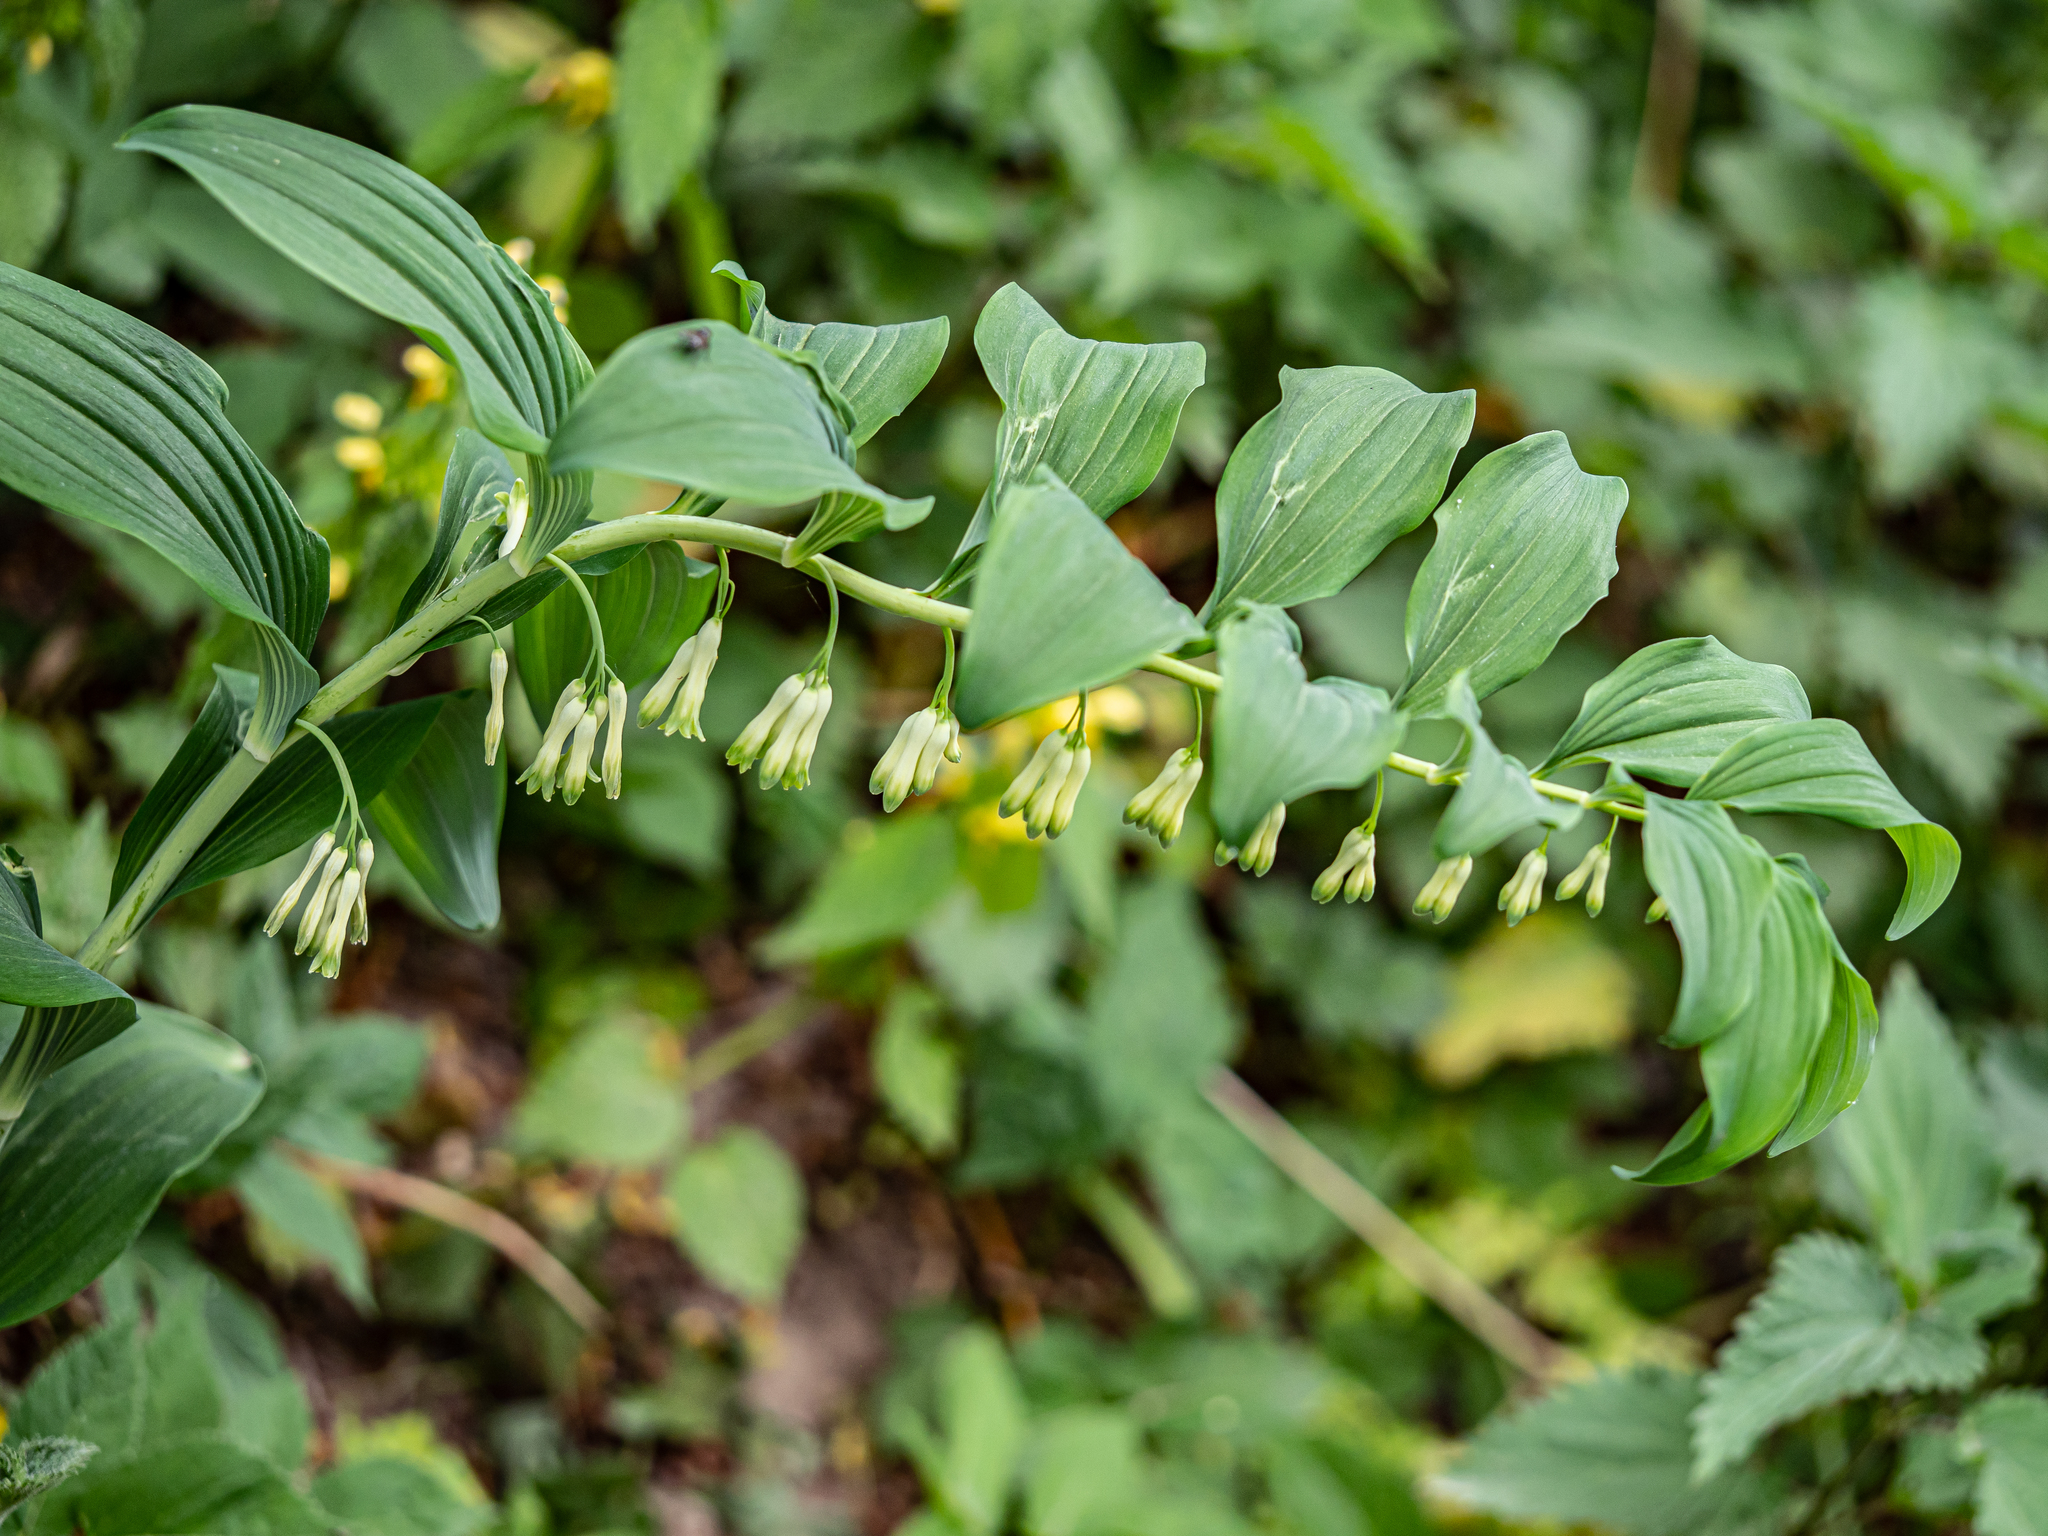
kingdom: Plantae
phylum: Tracheophyta
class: Liliopsida
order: Asparagales
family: Asparagaceae
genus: Polygonatum
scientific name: Polygonatum multiflorum
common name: Solomon's-seal
